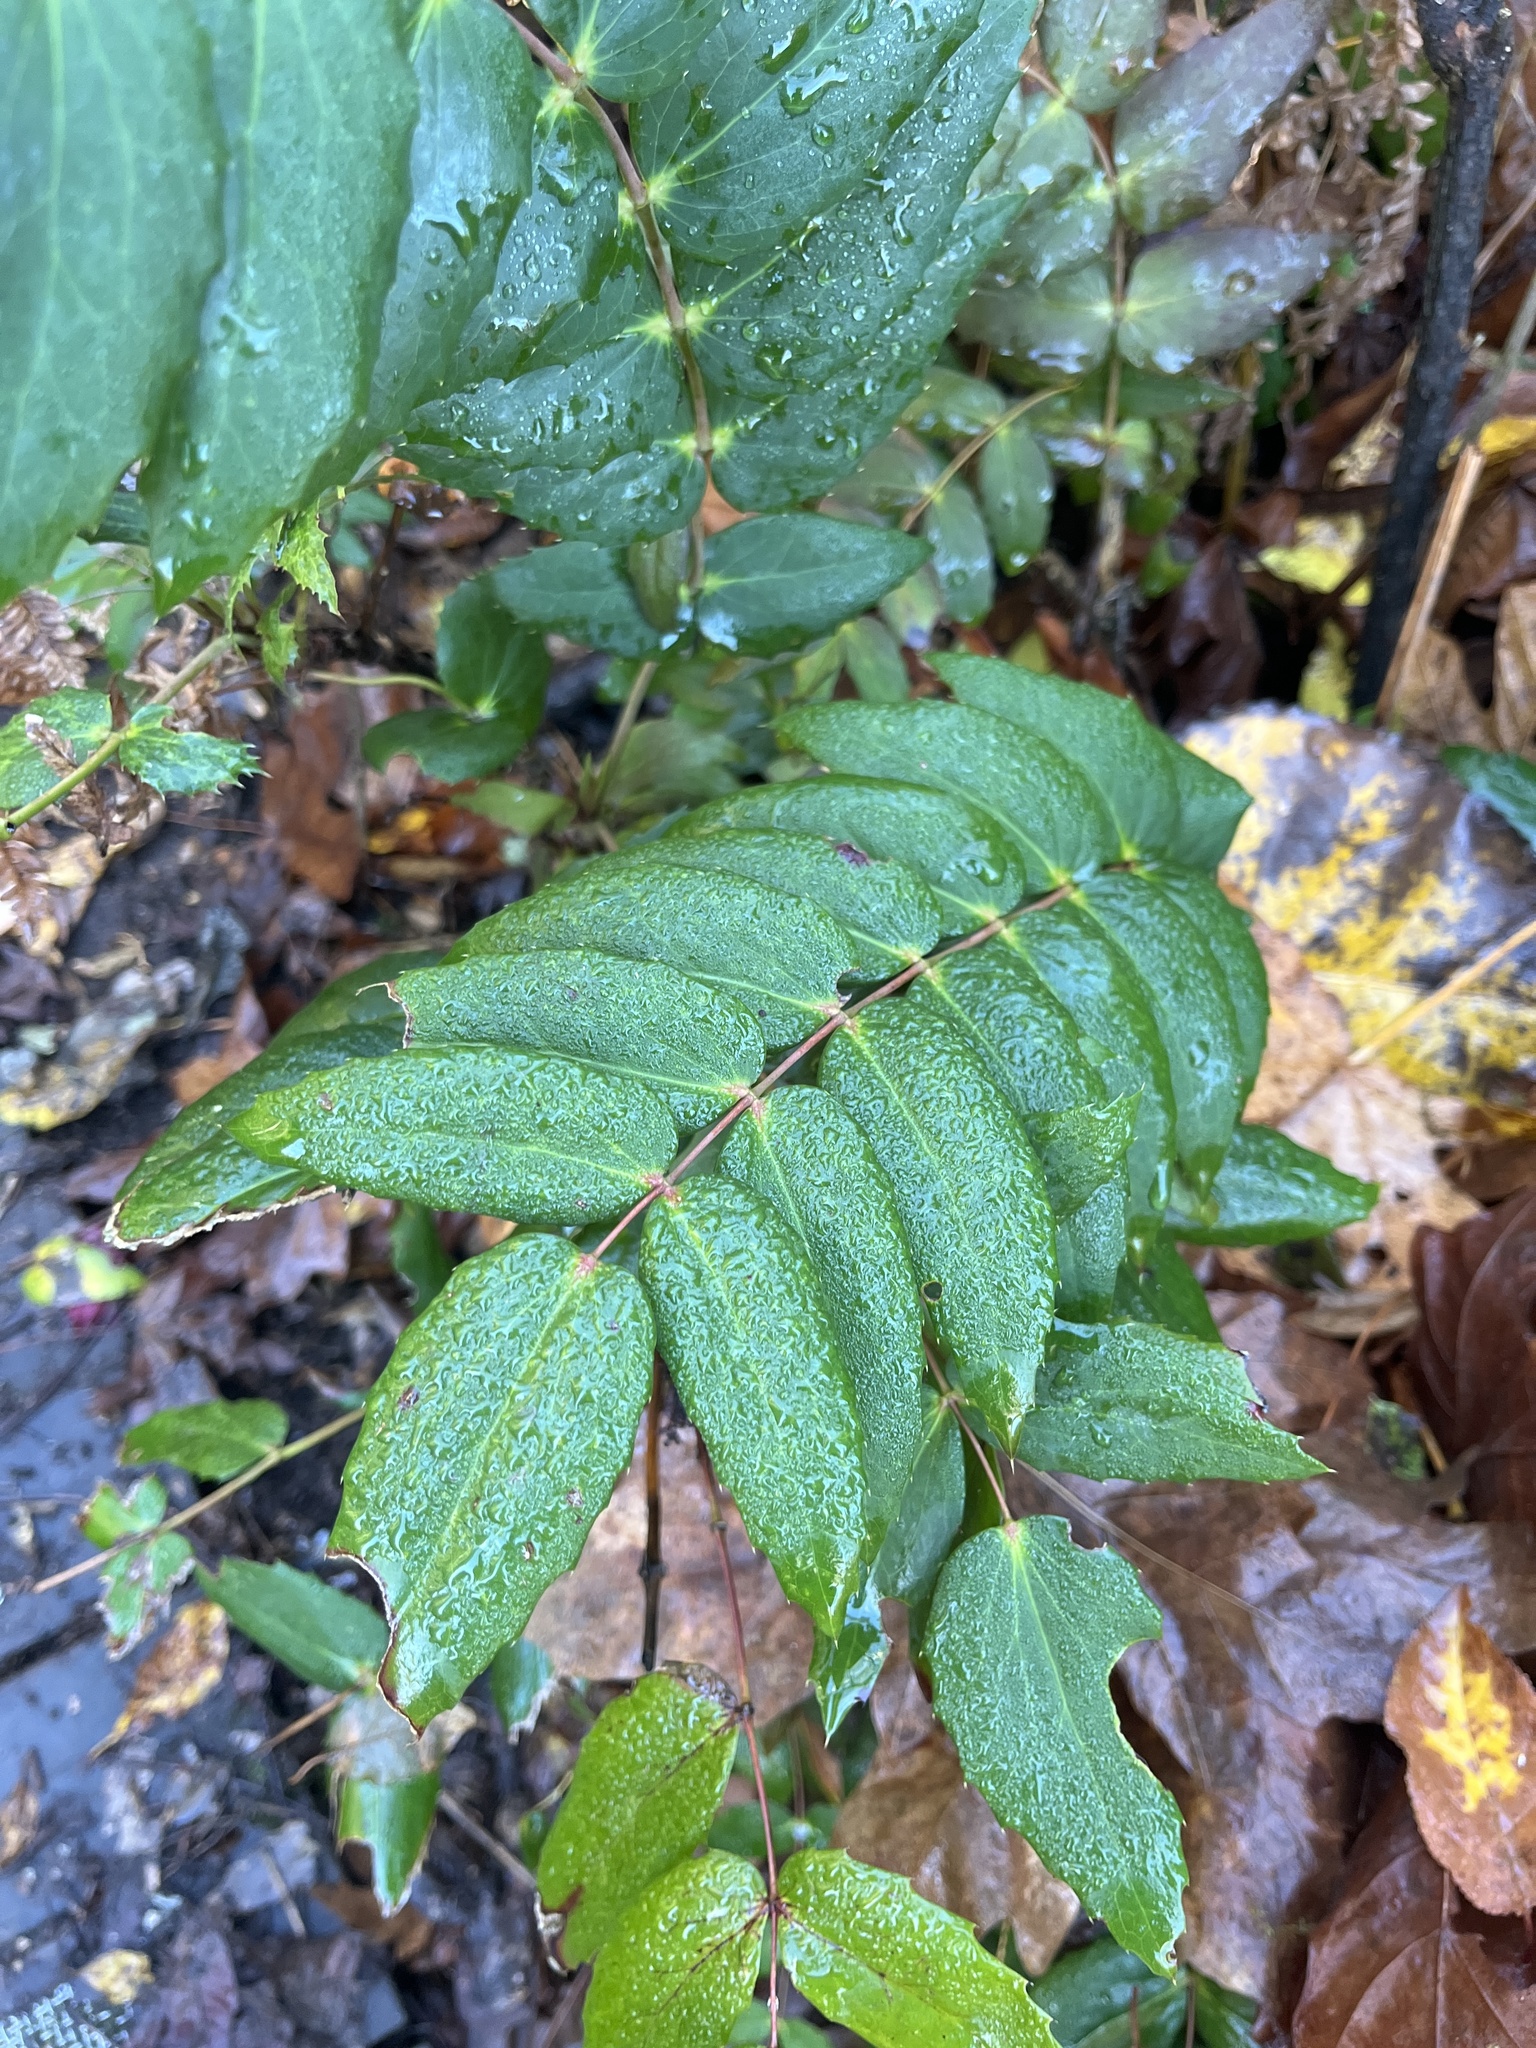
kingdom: Plantae
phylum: Tracheophyta
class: Magnoliopsida
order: Ranunculales
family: Berberidaceae
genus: Mahonia
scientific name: Mahonia nervosa
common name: Cascade oregon-grape
